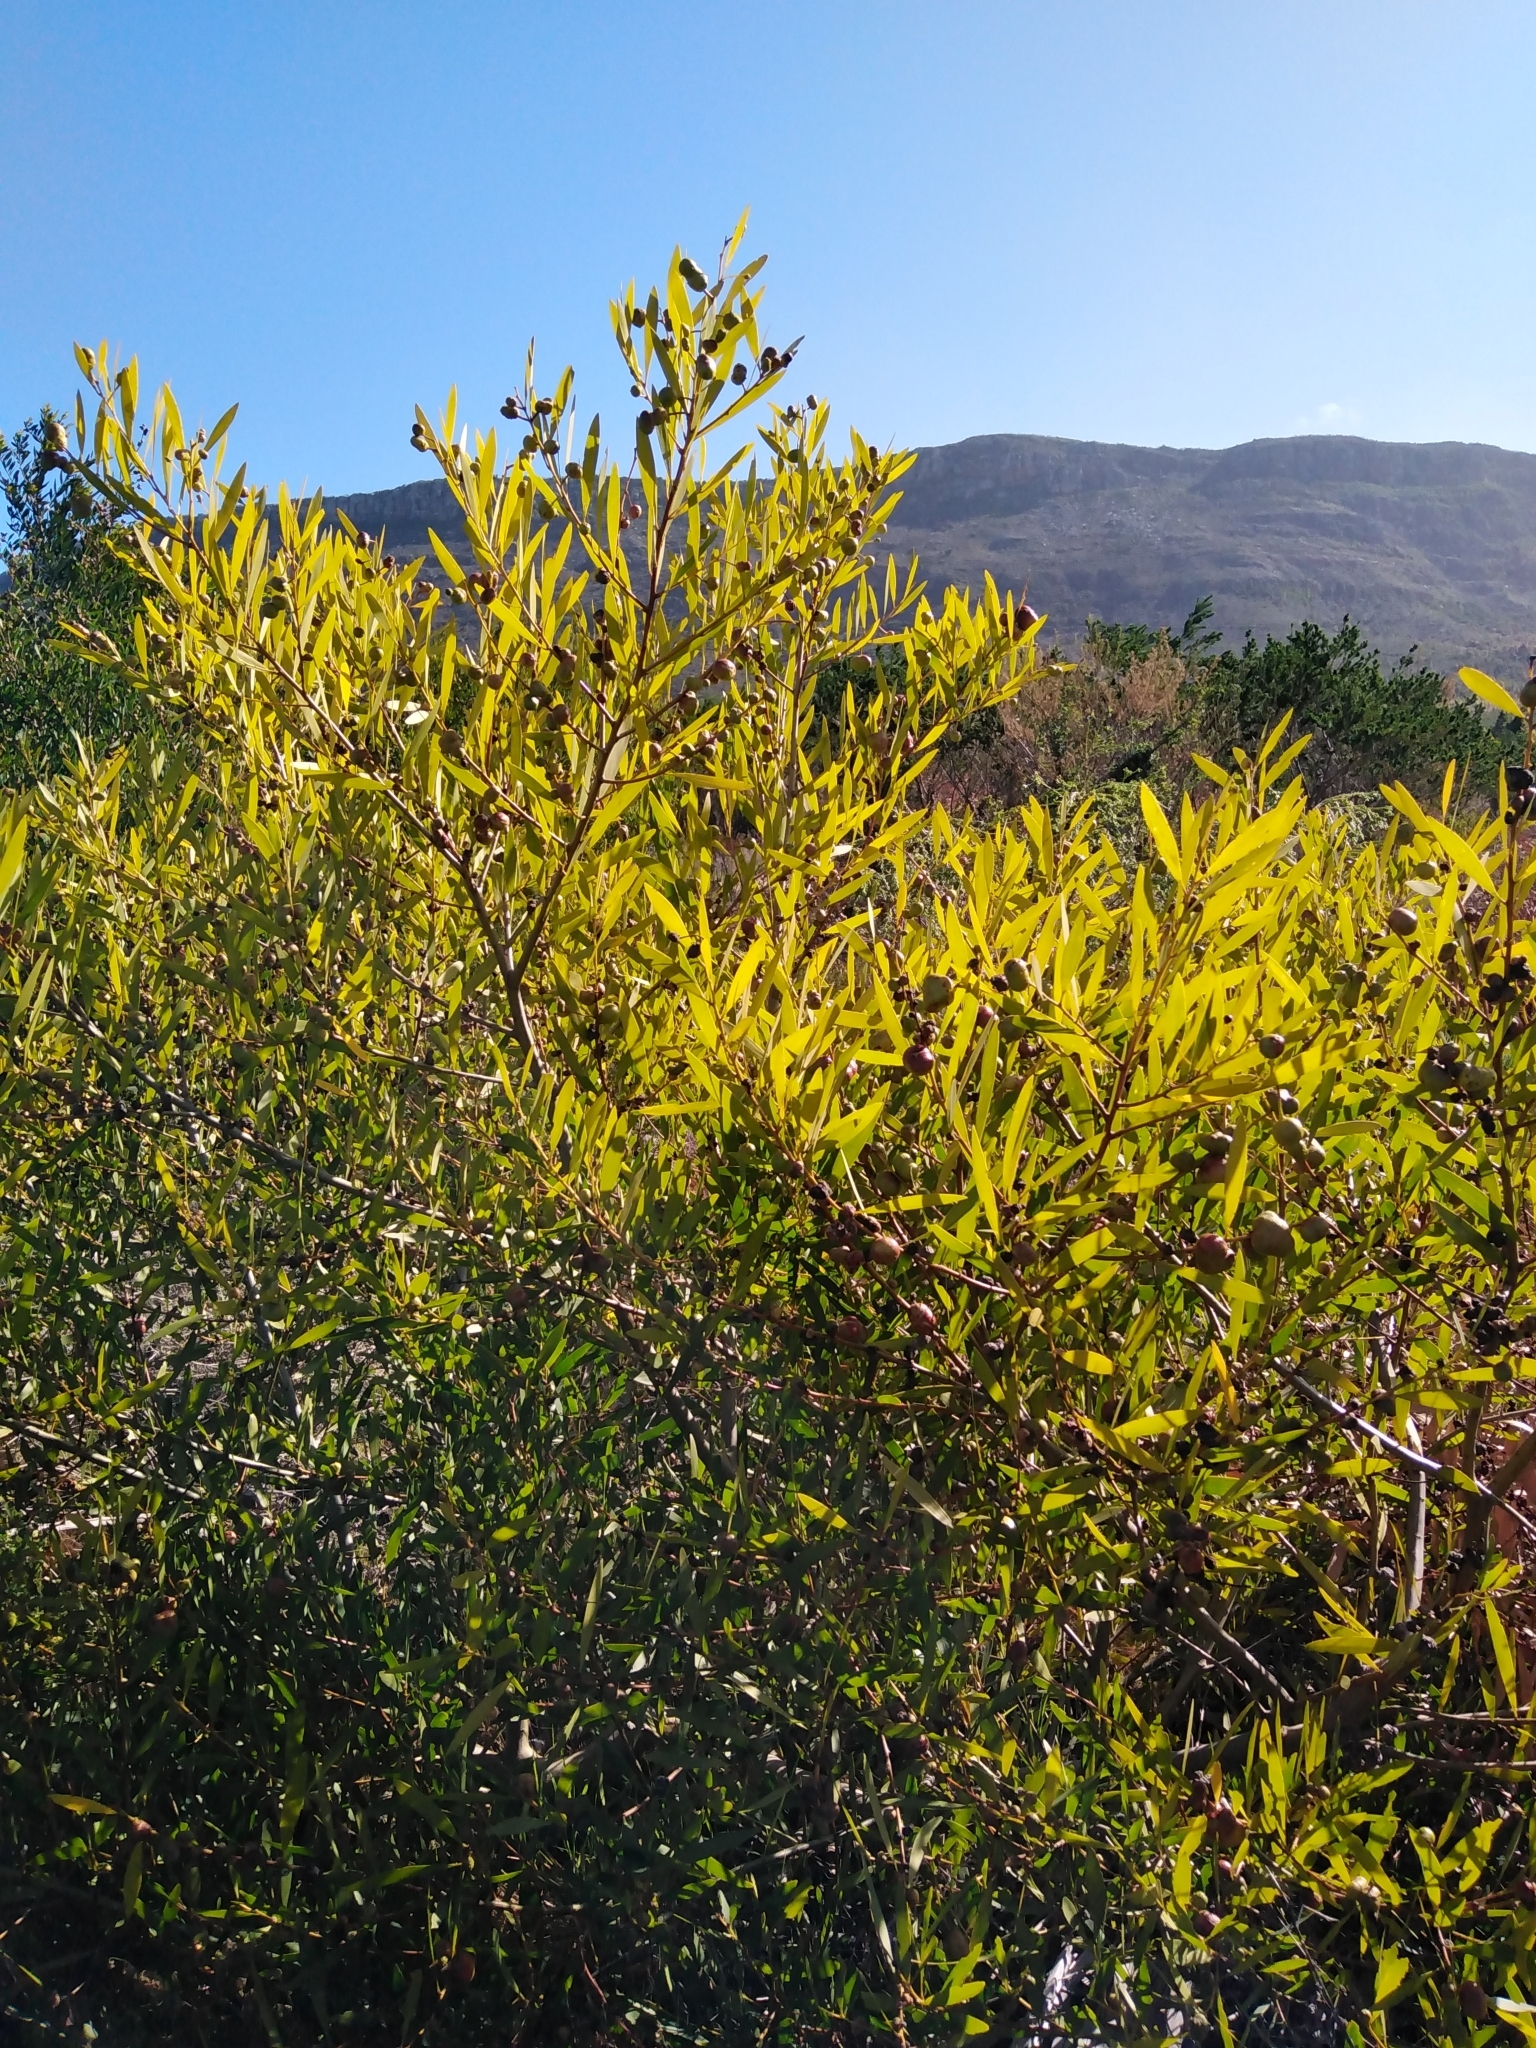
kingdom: Plantae
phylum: Tracheophyta
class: Magnoliopsida
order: Fabales
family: Fabaceae
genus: Acacia
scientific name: Acacia longifolia
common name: Sydney golden wattle
